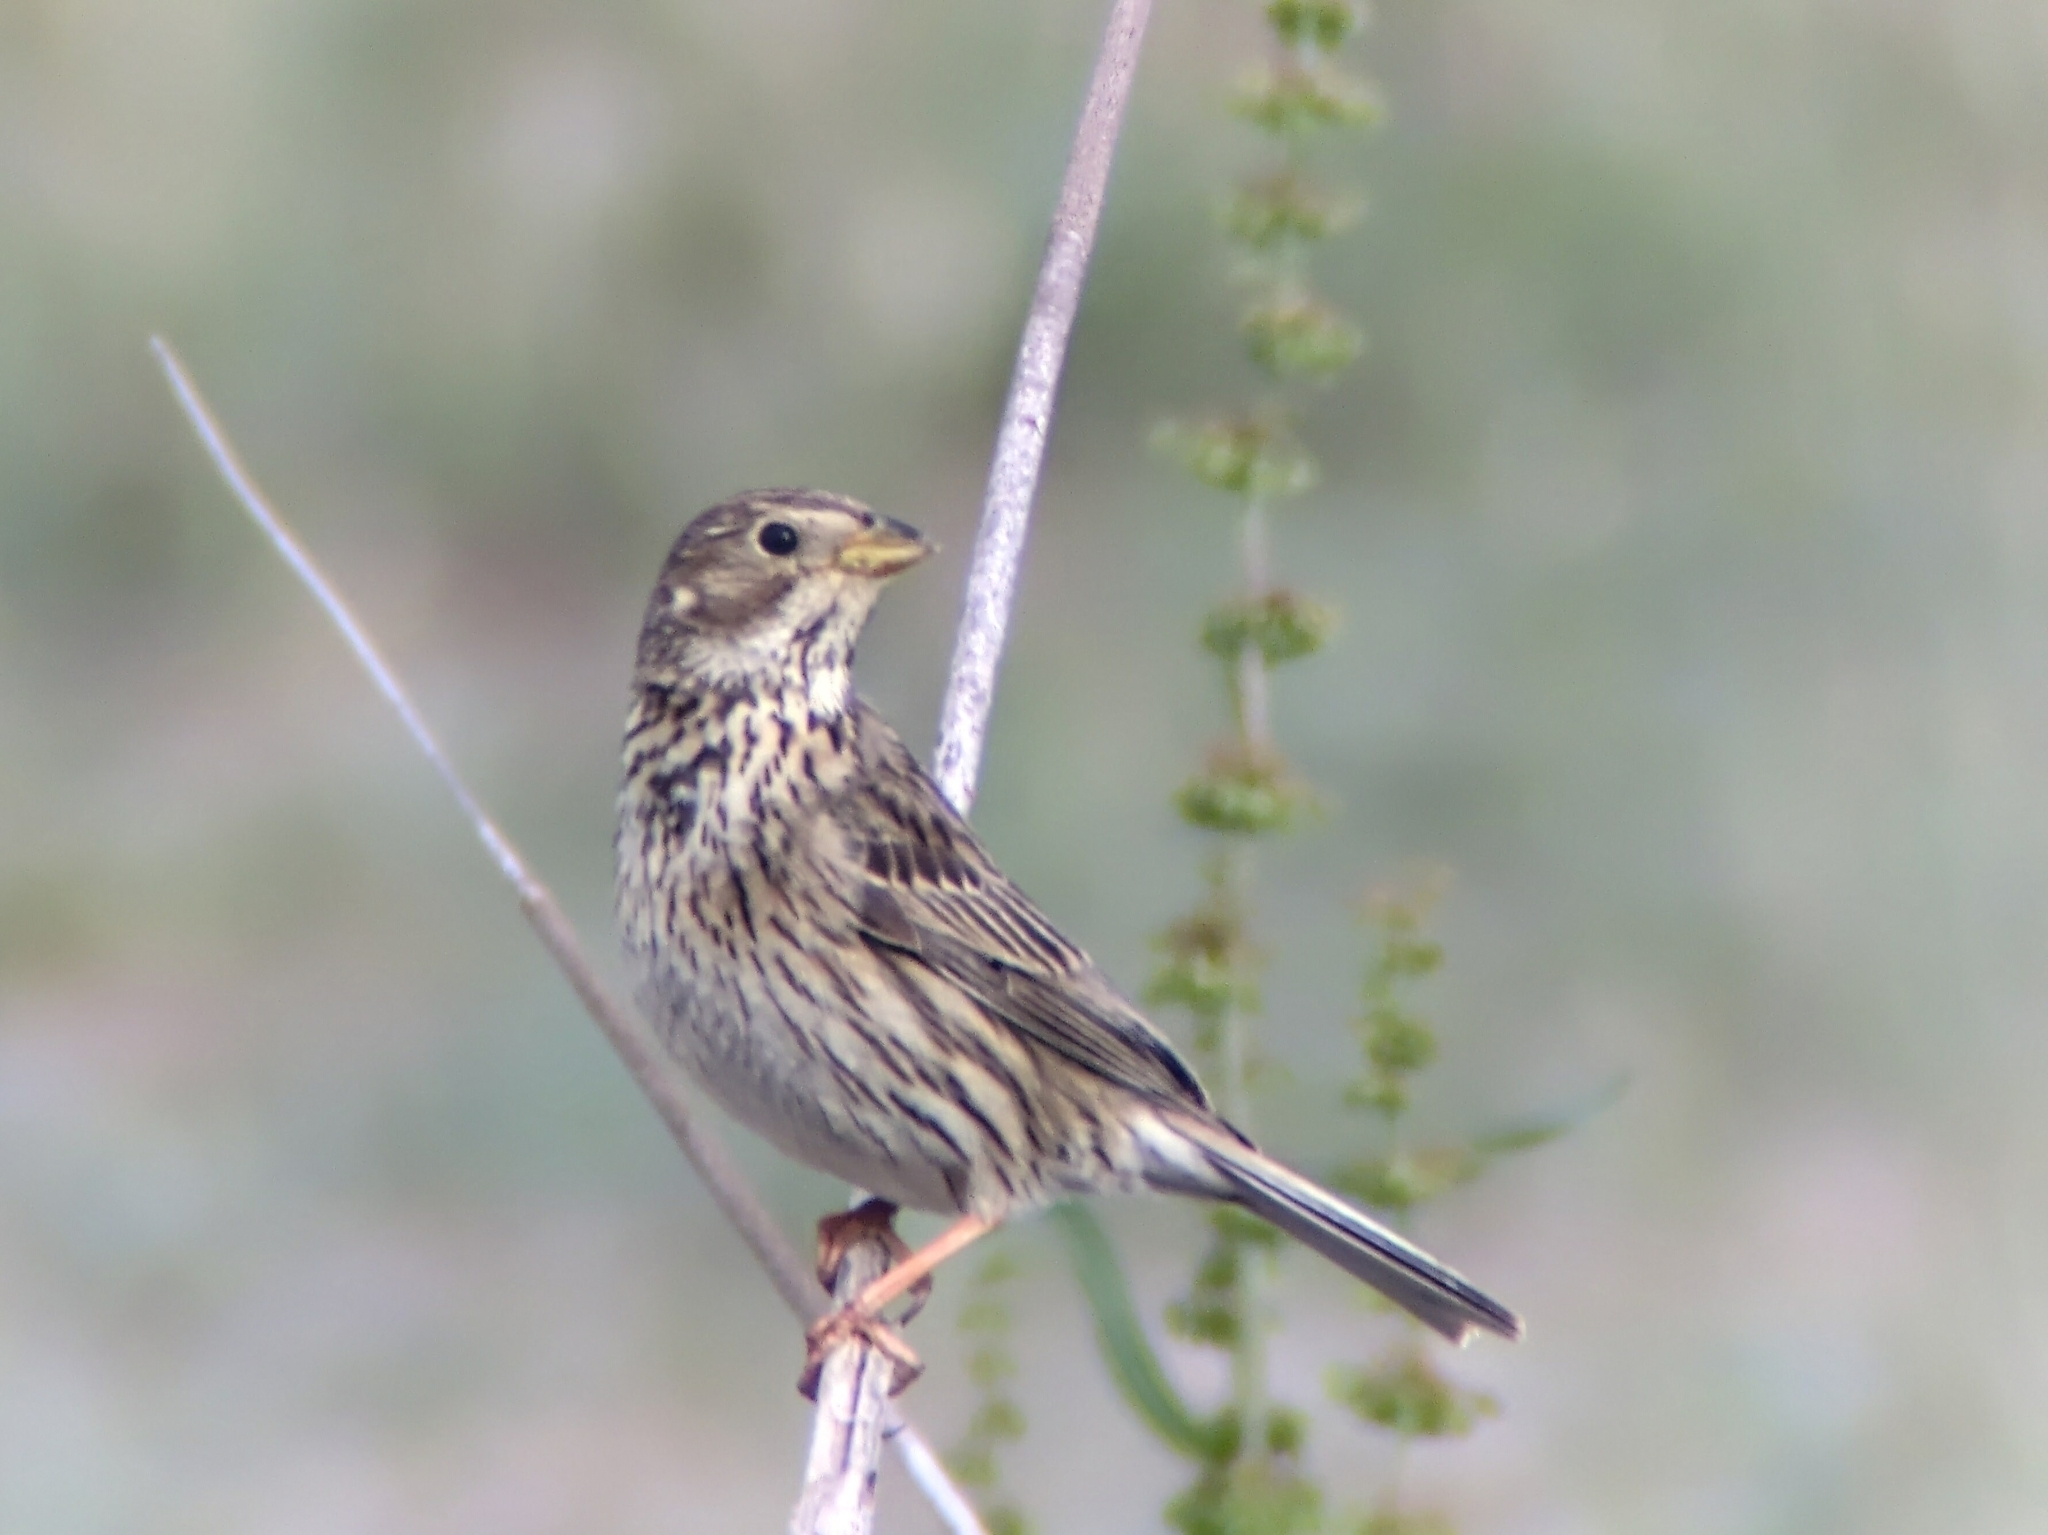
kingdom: Animalia
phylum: Chordata
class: Aves
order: Passeriformes
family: Emberizidae
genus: Emberiza
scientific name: Emberiza calandra
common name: Corn bunting
